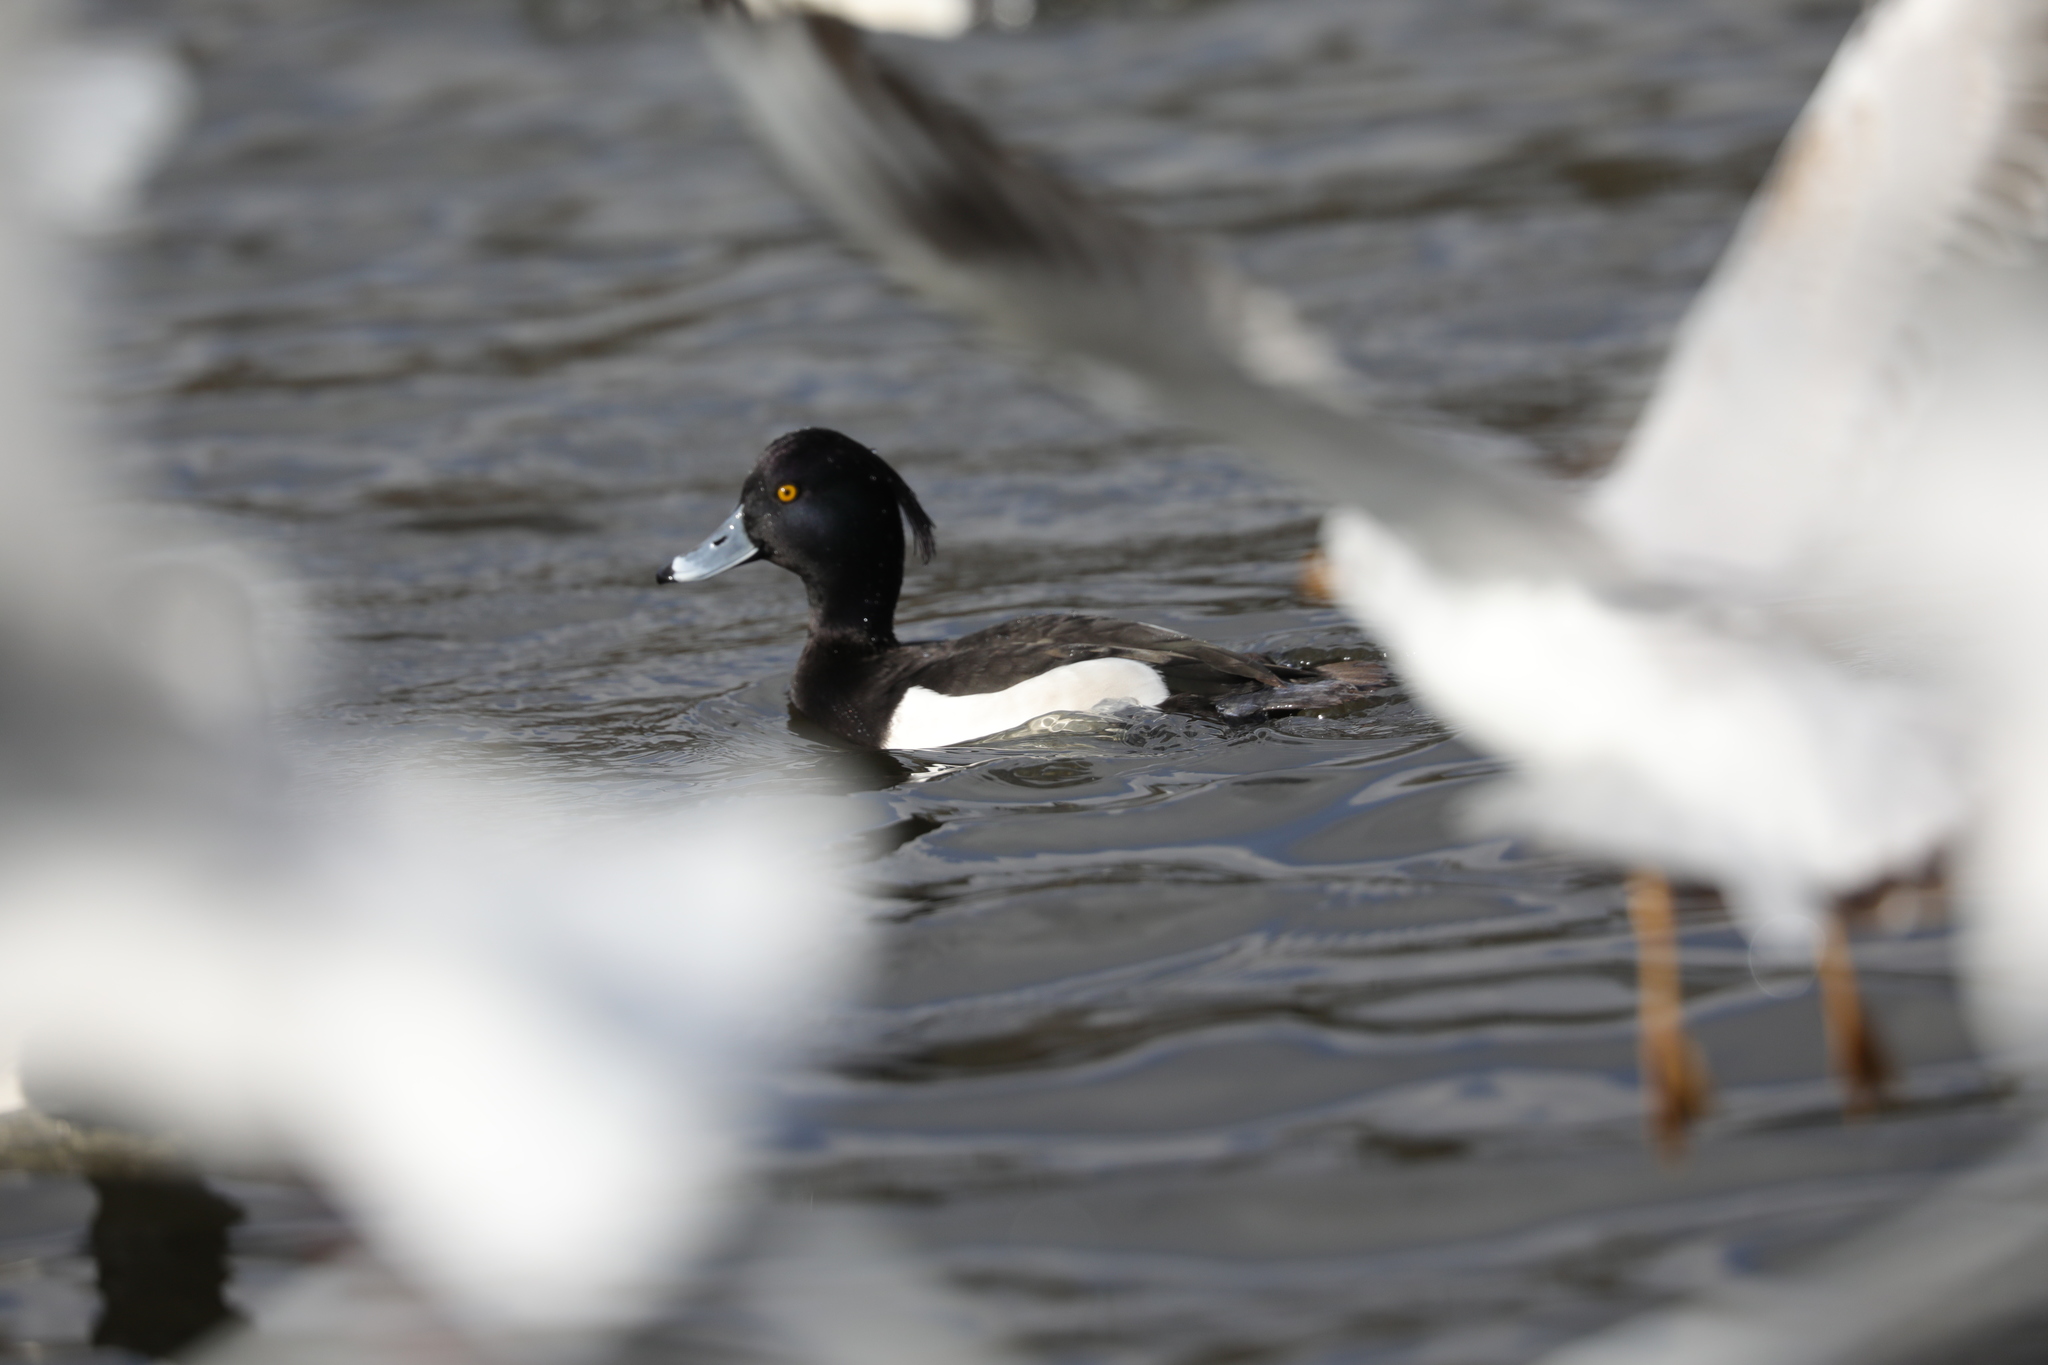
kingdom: Animalia
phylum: Chordata
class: Aves
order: Anseriformes
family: Anatidae
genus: Aythya
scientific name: Aythya fuligula
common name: Tufted duck
